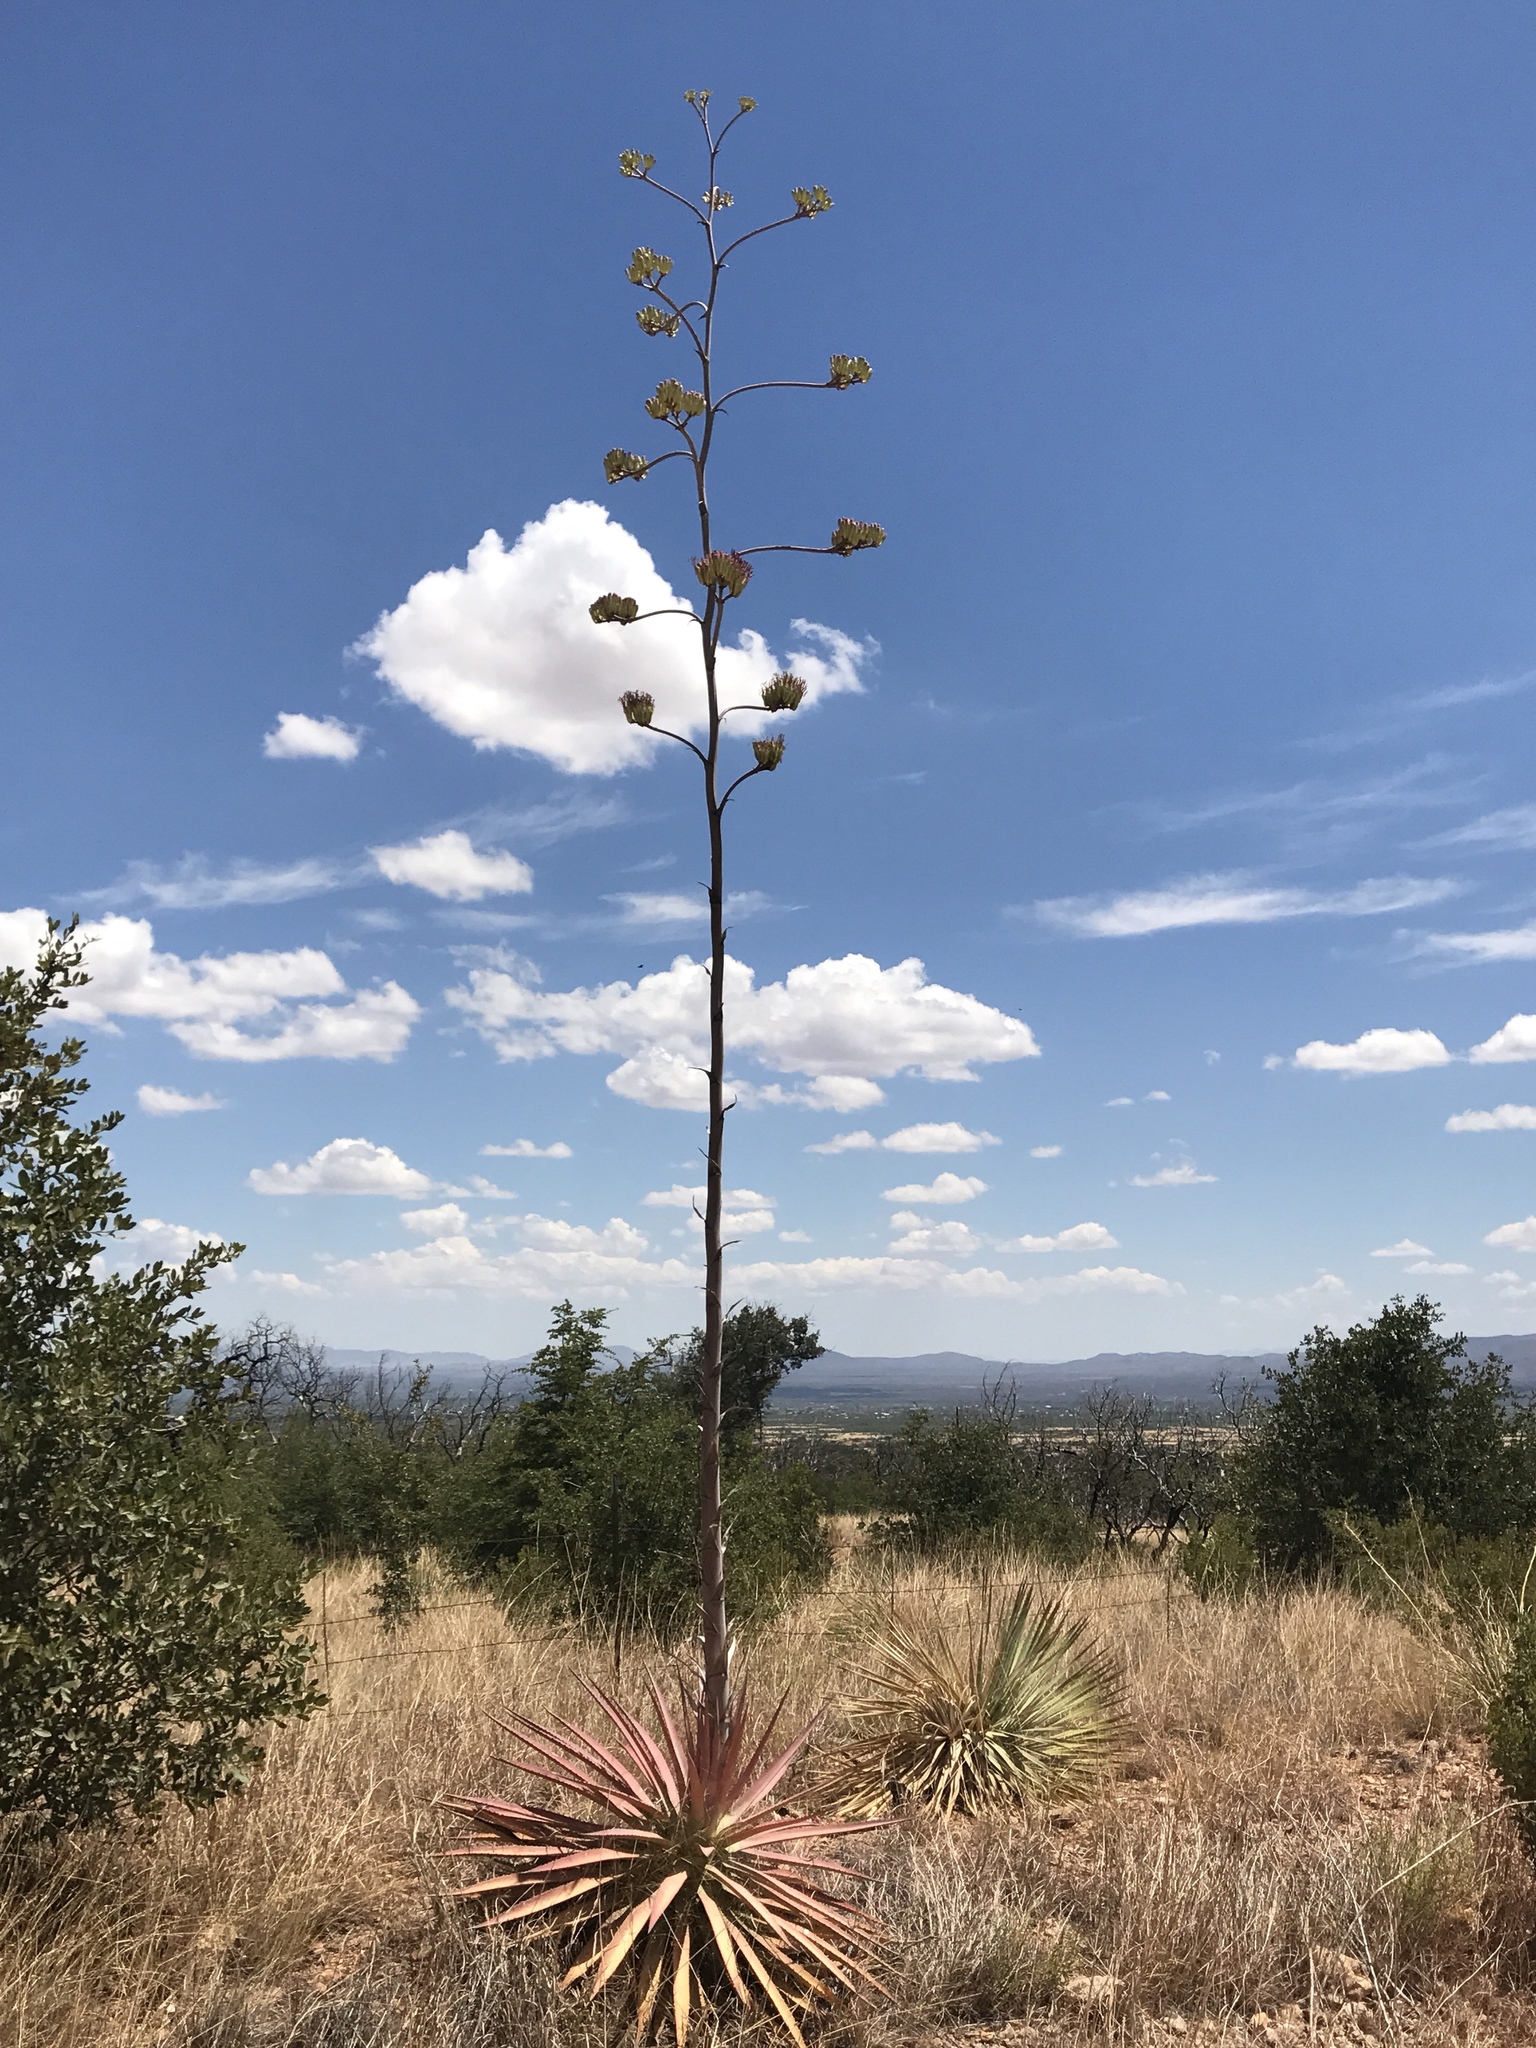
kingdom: Plantae
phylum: Tracheophyta
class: Liliopsida
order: Asparagales
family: Asparagaceae
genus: Agave
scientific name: Agave palmeri
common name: Palmer agave
